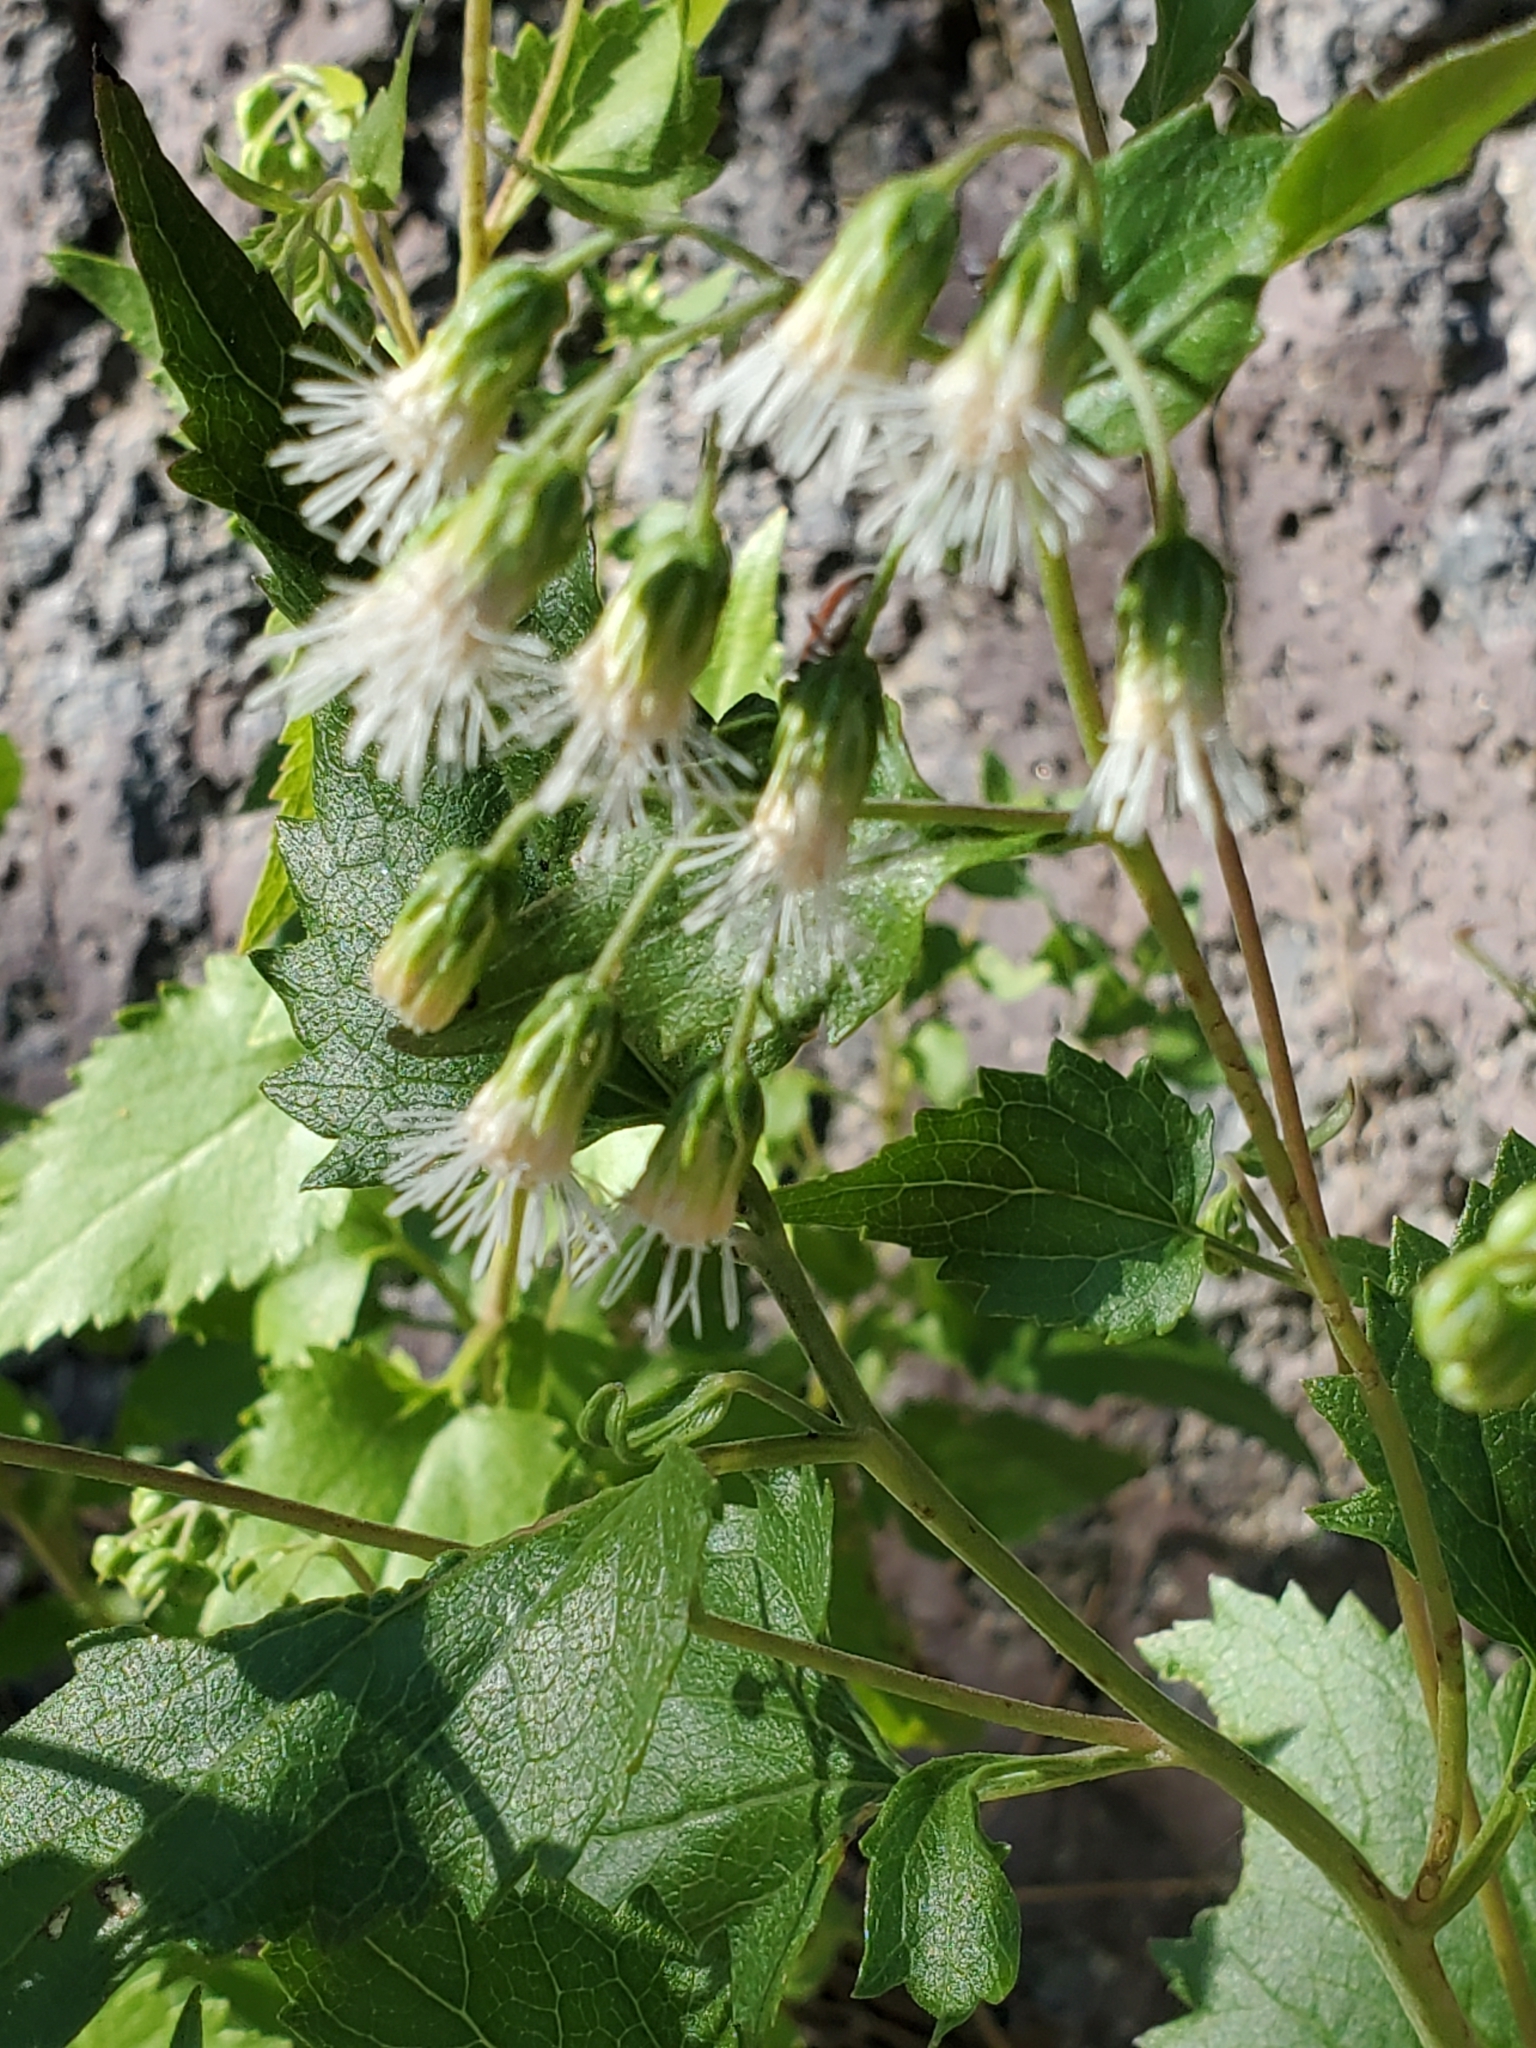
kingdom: Plantae
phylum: Tracheophyta
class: Magnoliopsida
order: Asterales
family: Asteraceae
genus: Brickelliastrum
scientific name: Brickelliastrum fendleri
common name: Fendler's-brickellbush
